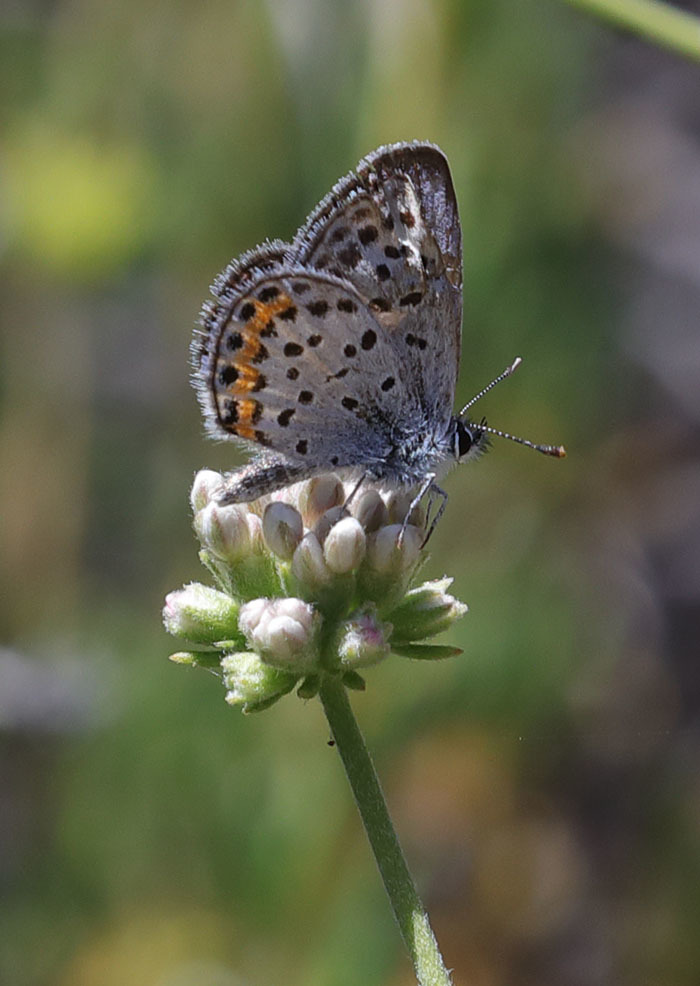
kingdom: Animalia
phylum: Arthropoda
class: Insecta
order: Lepidoptera
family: Lycaenidae
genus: Icaricia
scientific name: Icaricia lupini
